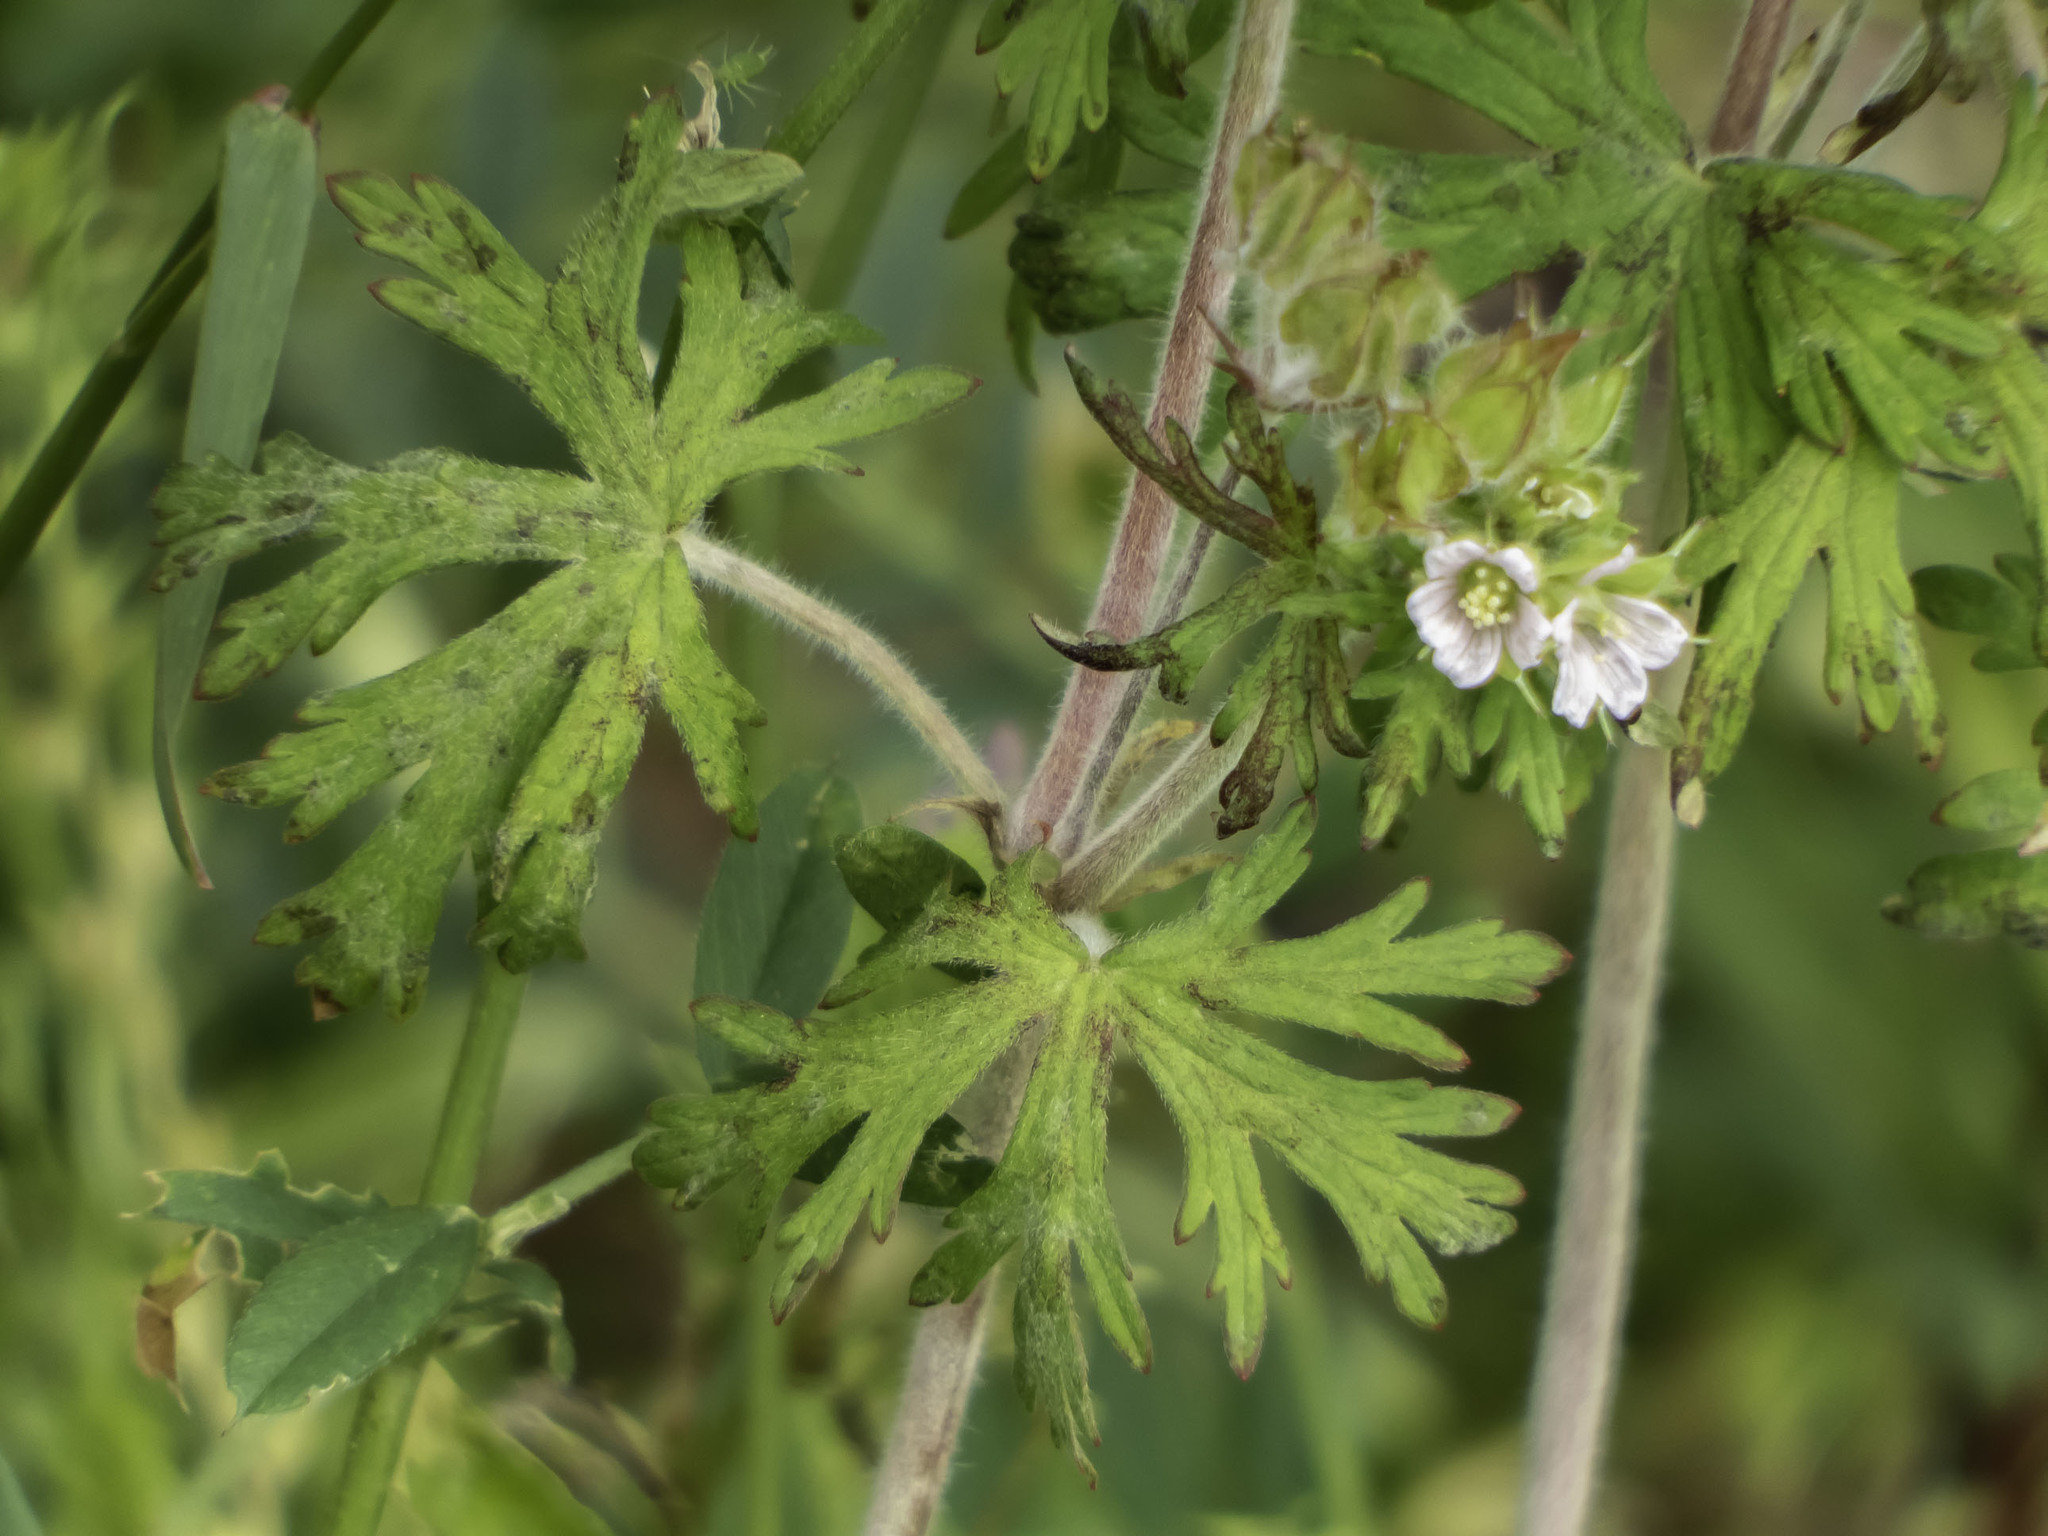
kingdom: Plantae
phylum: Tracheophyta
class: Magnoliopsida
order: Geraniales
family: Geraniaceae
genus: Geranium
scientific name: Geranium carolinianum
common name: Carolina crane's-bill
